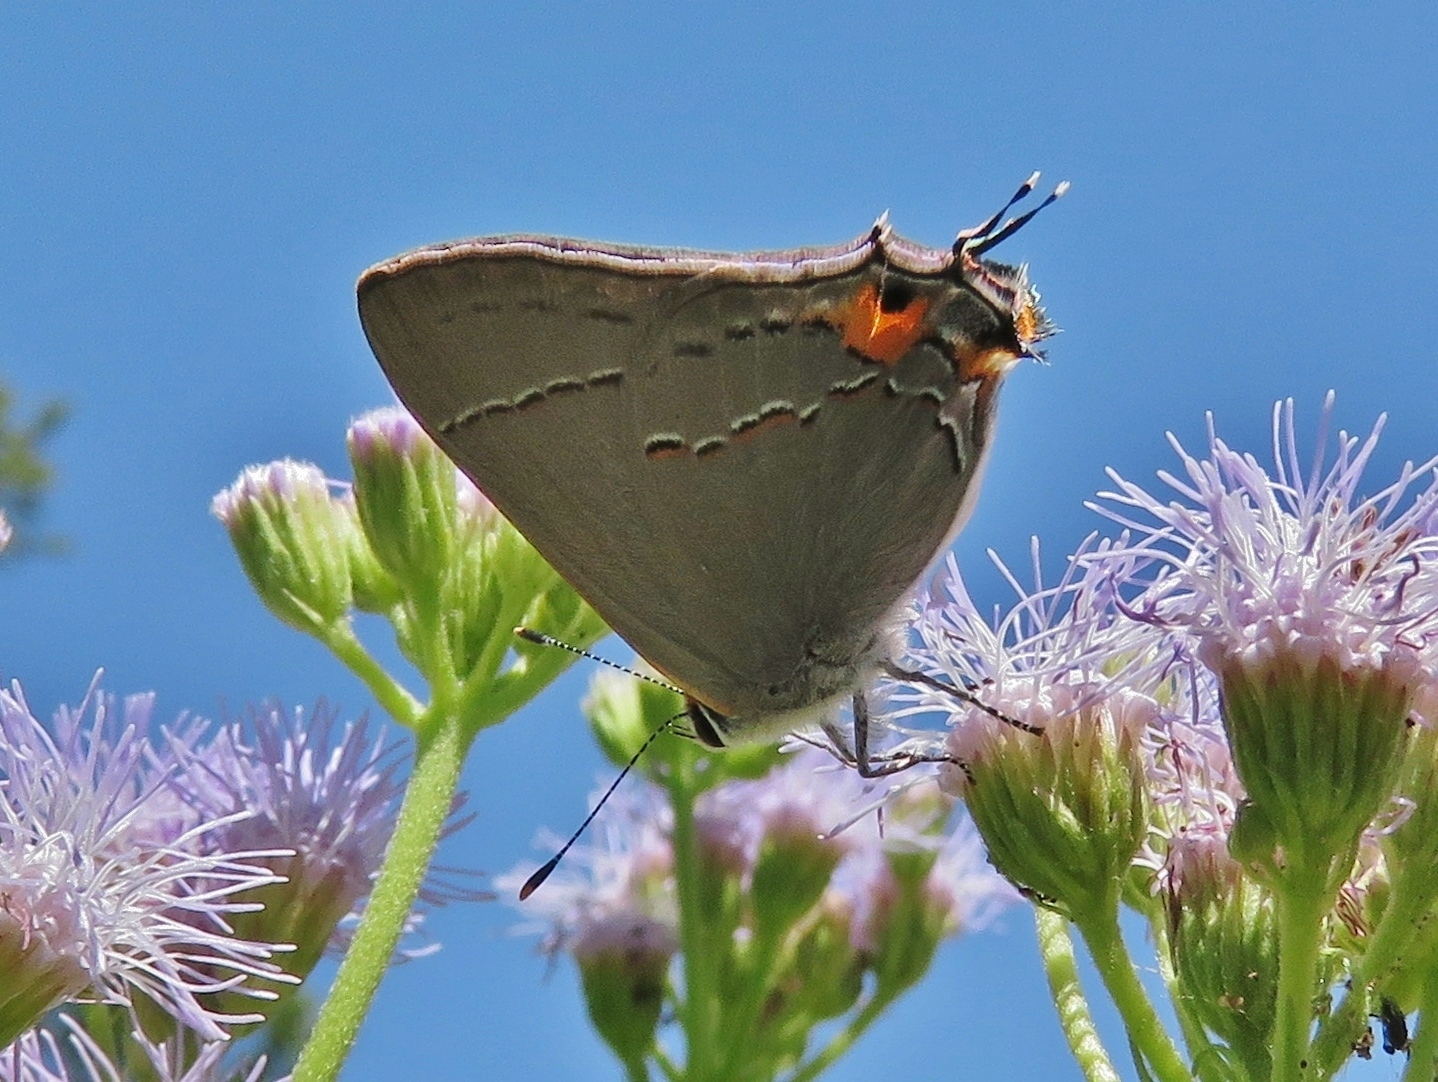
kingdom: Animalia
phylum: Arthropoda
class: Insecta
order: Lepidoptera
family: Lycaenidae
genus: Strymon
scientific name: Strymon melinus
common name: Gray hairstreak
